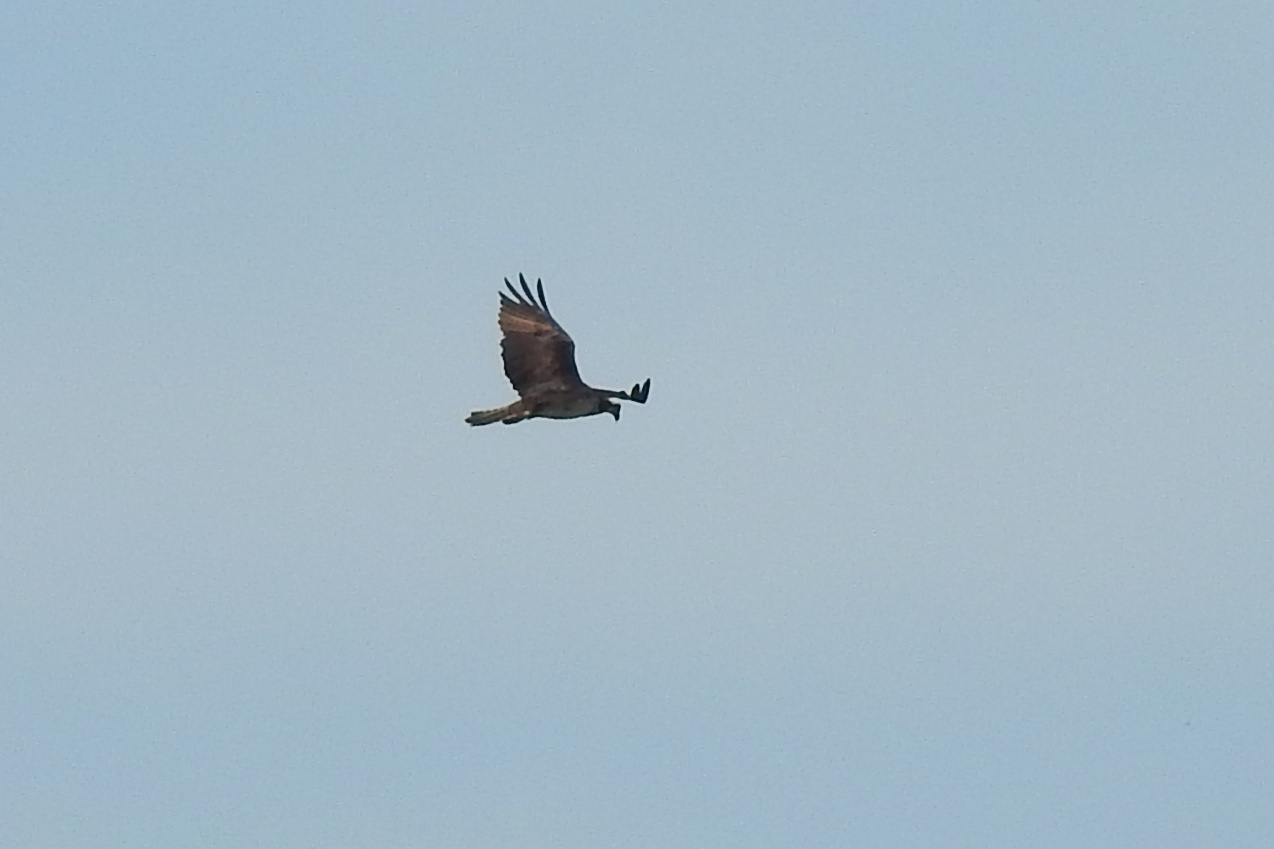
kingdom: Animalia
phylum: Chordata
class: Aves
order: Accipitriformes
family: Pandionidae
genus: Pandion
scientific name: Pandion haliaetus
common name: Osprey
